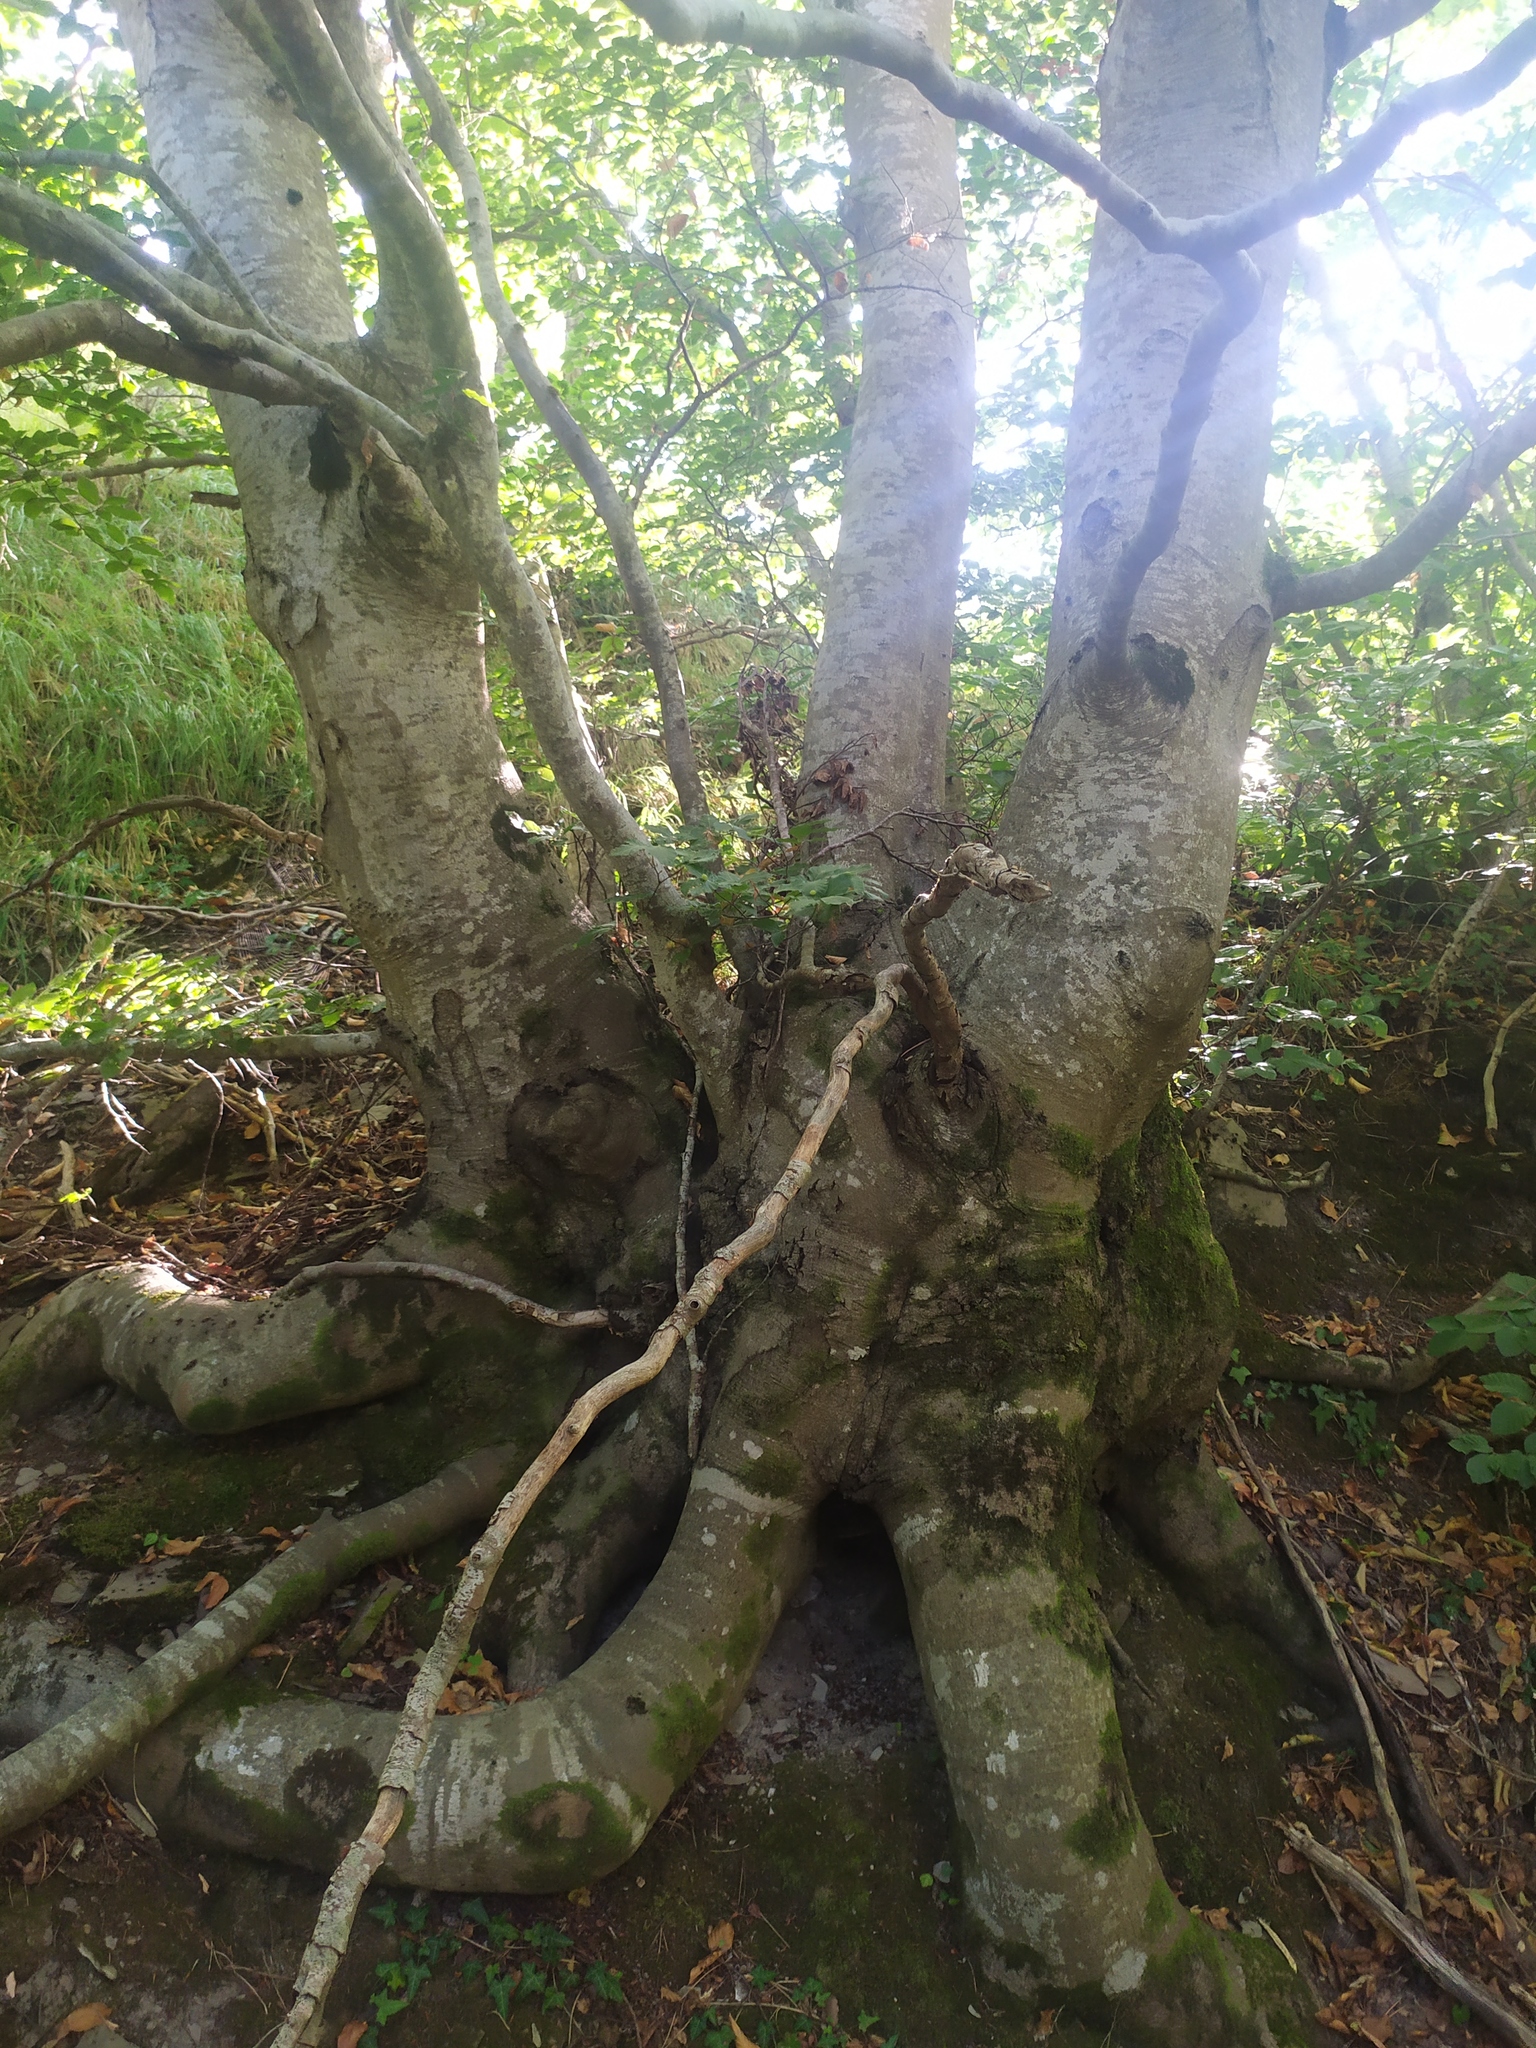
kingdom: Plantae
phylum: Tracheophyta
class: Magnoliopsida
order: Fagales
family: Fagaceae
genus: Fagus
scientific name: Fagus sylvatica
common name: Beech
